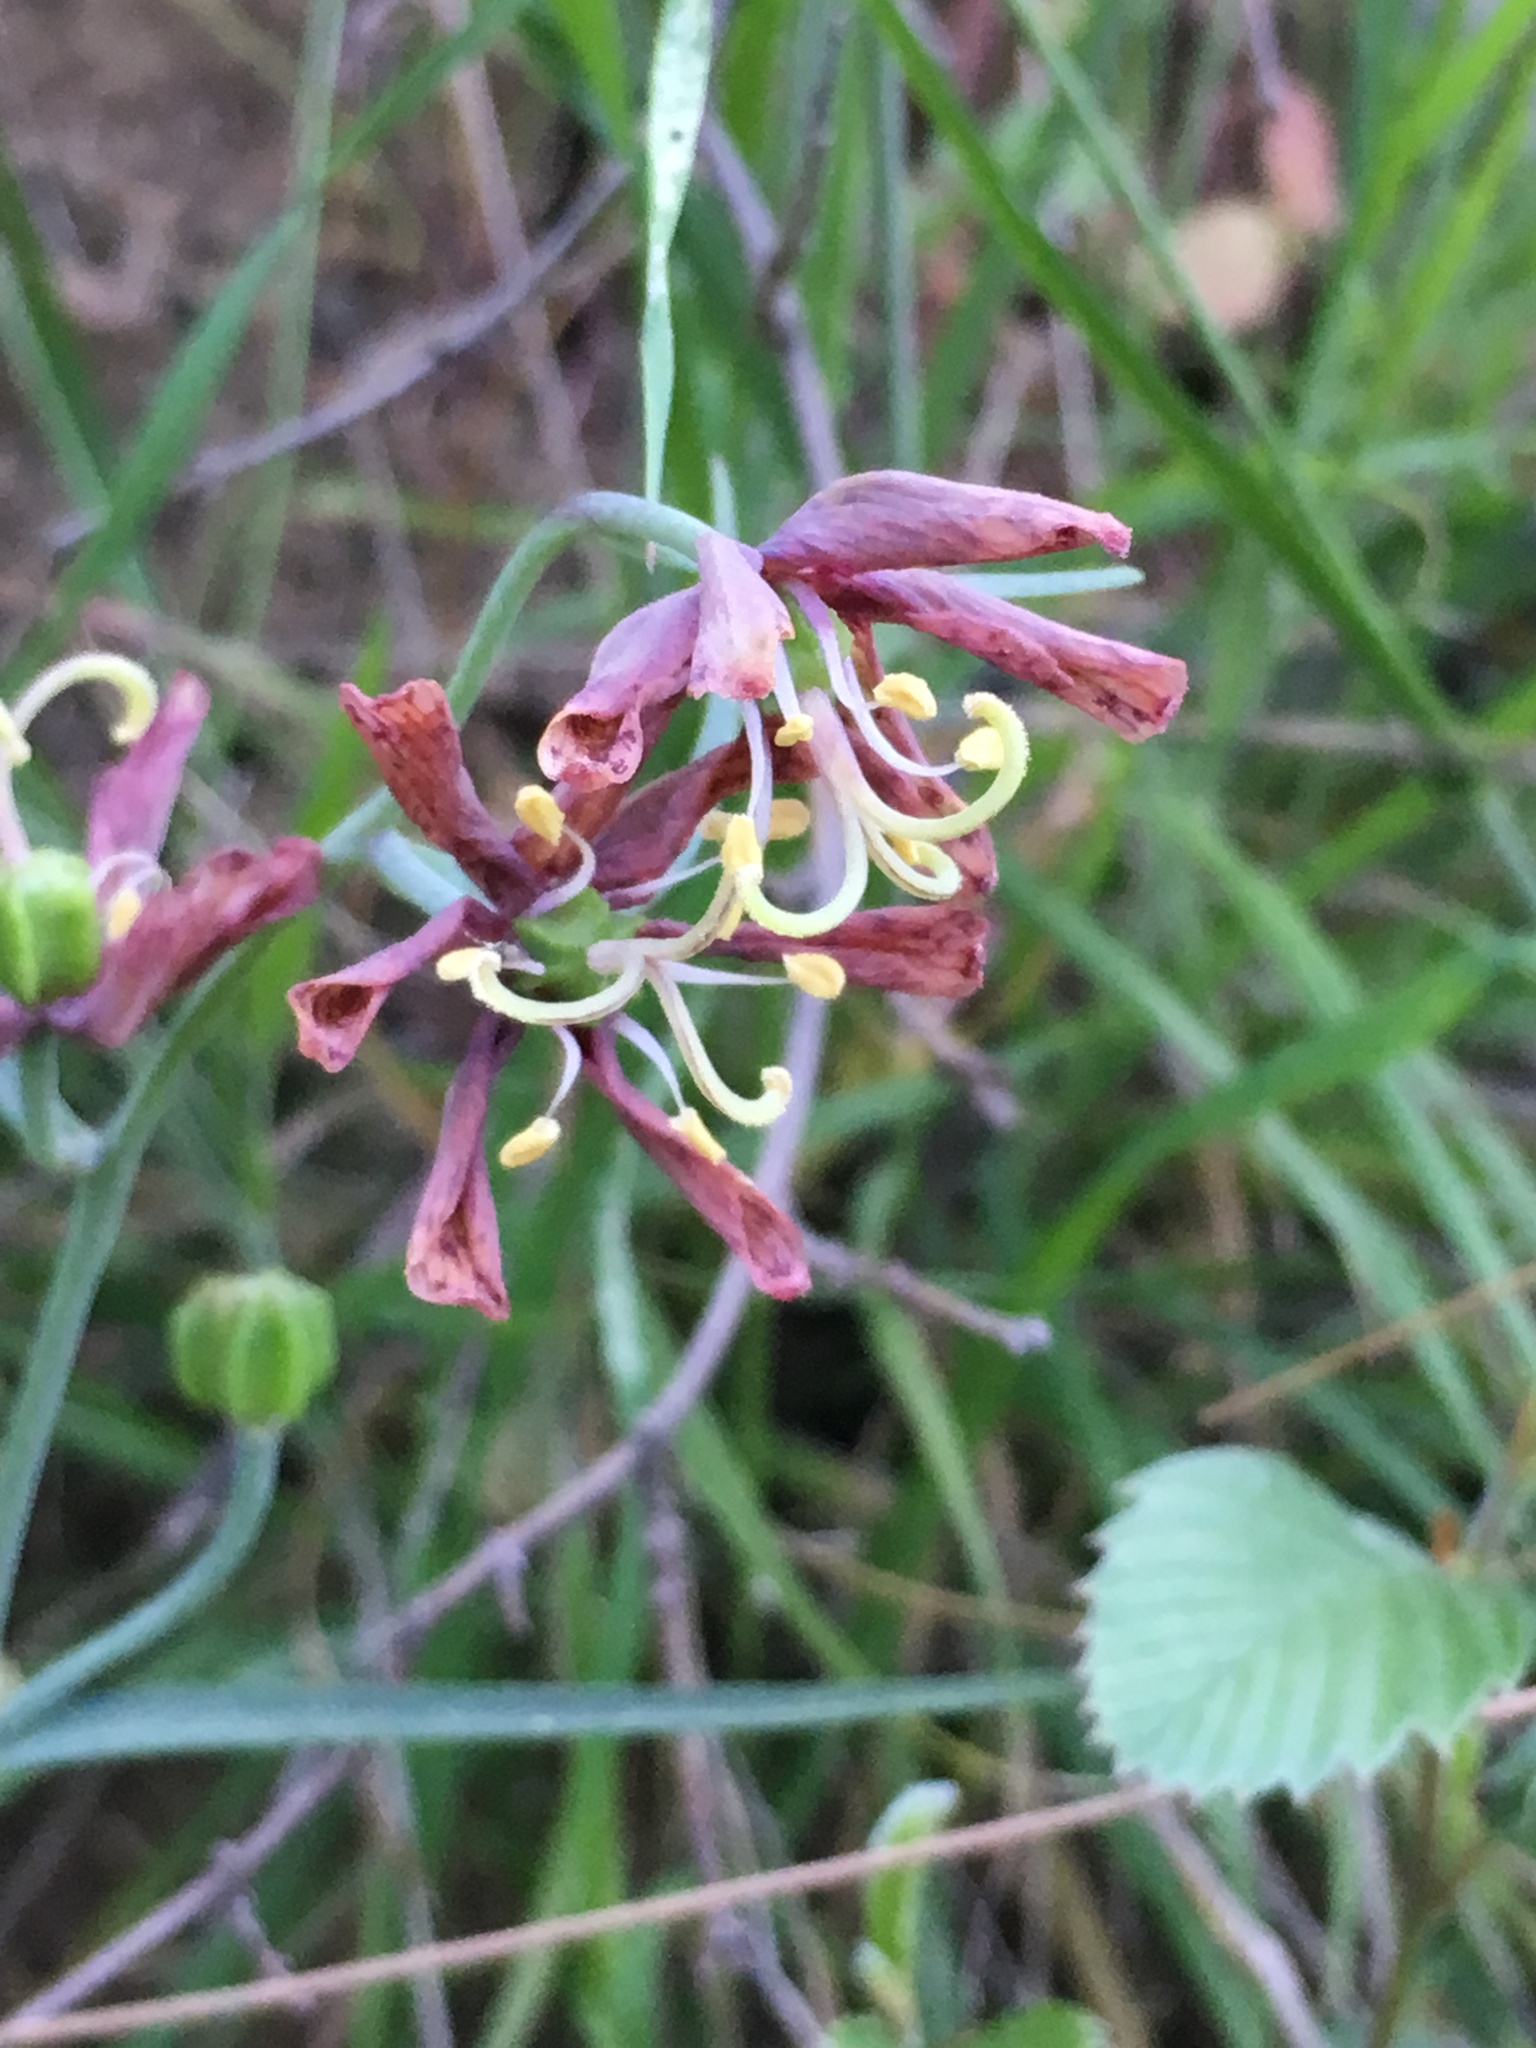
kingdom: Plantae
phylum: Tracheophyta
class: Liliopsida
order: Liliales
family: Liliaceae
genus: Fritillaria
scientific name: Fritillaria ojaiensis
